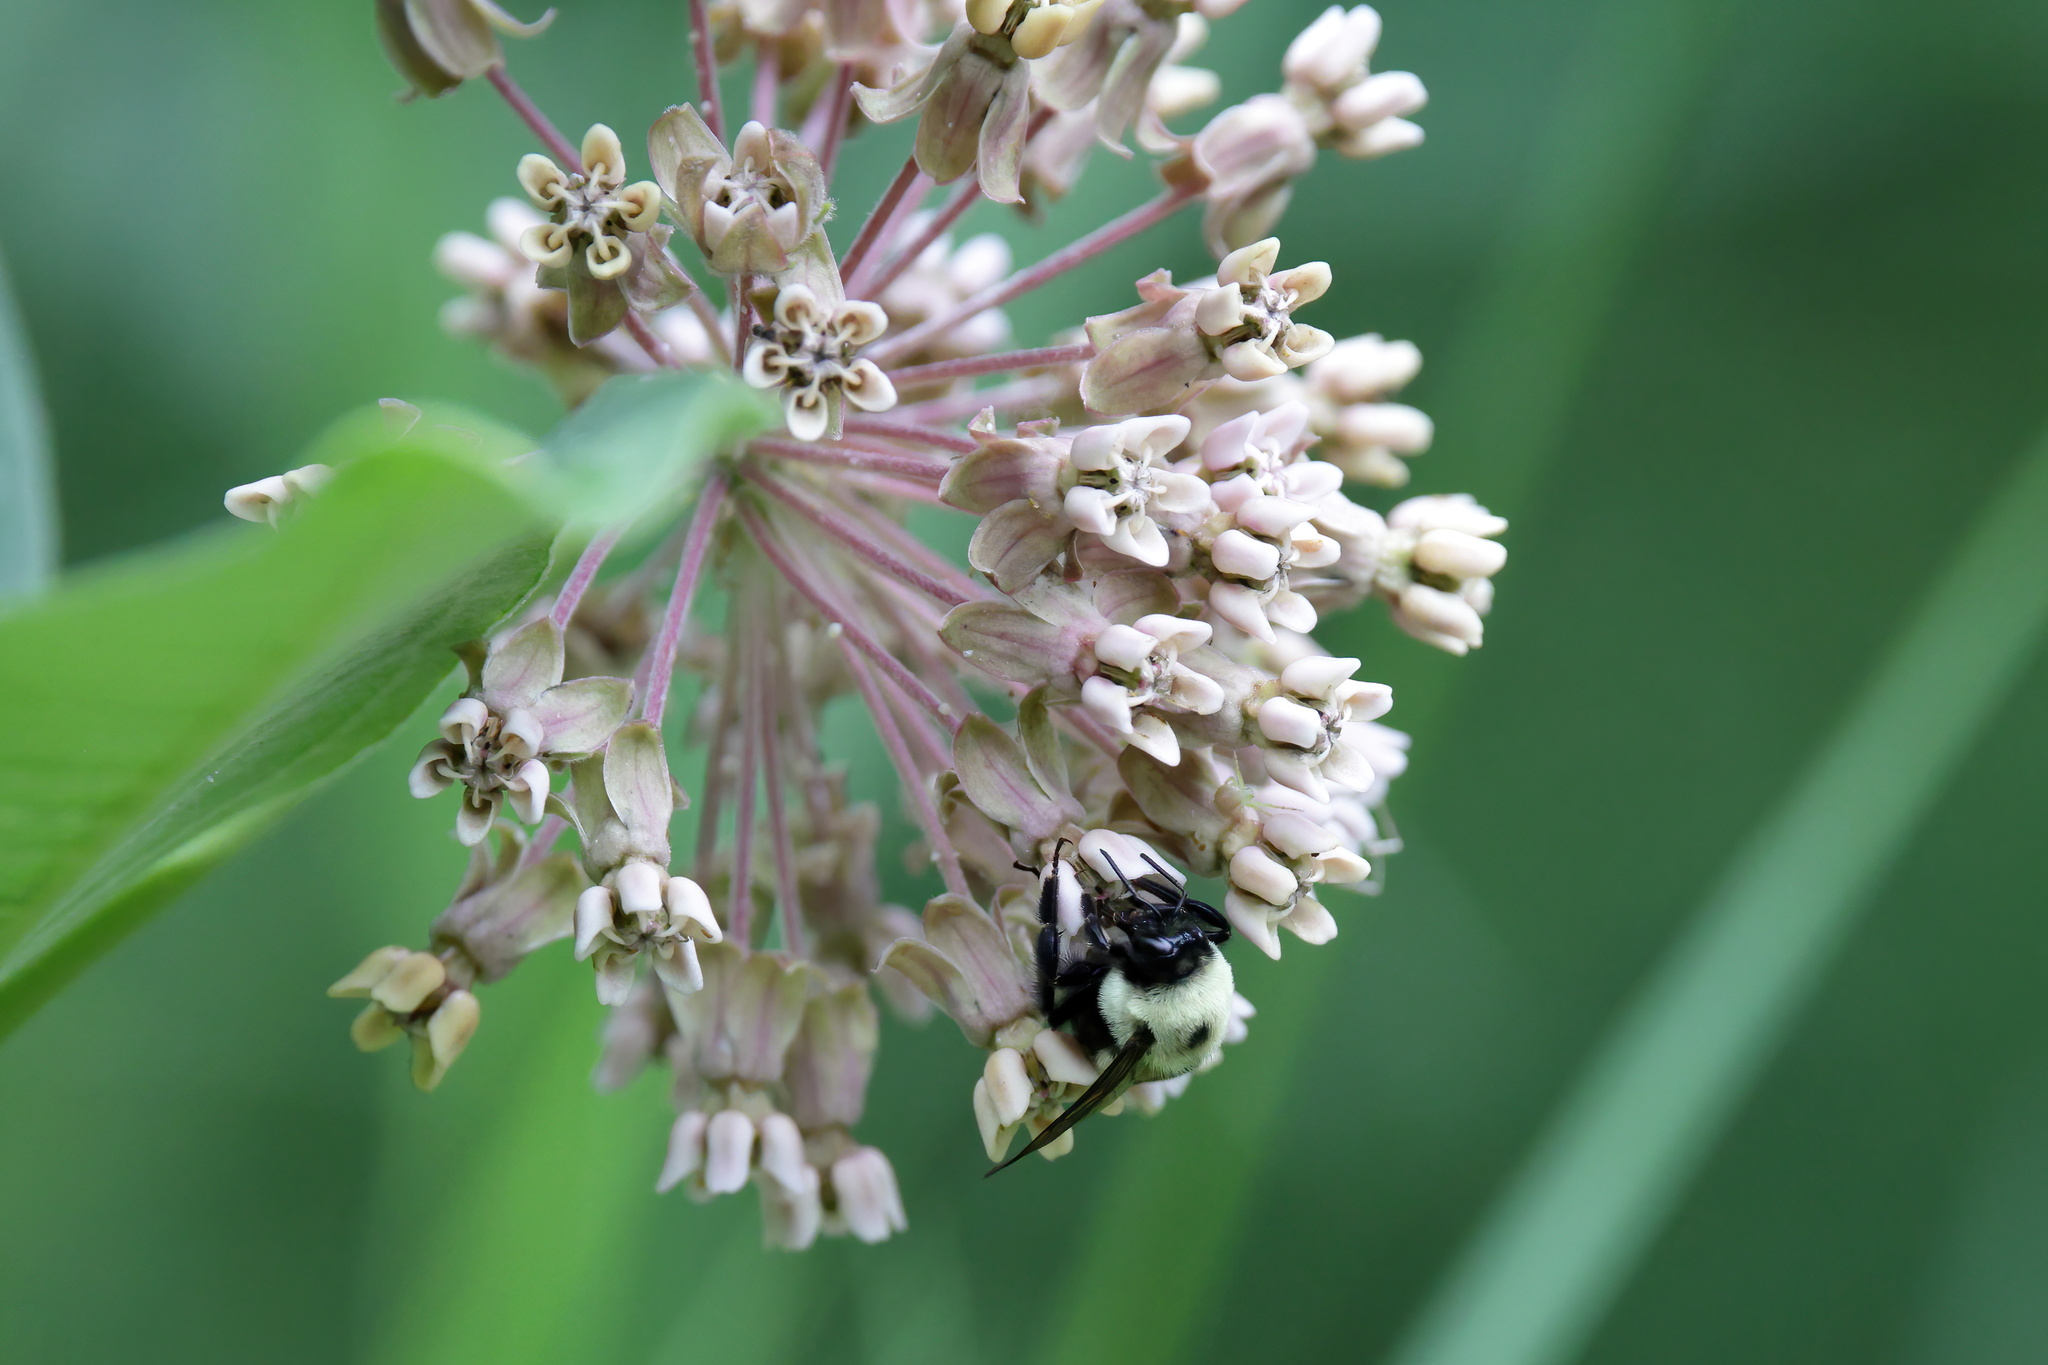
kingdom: Plantae
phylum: Tracheophyta
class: Magnoliopsida
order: Gentianales
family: Apocynaceae
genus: Asclepias
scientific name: Asclepias syriaca
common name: Common milkweed
